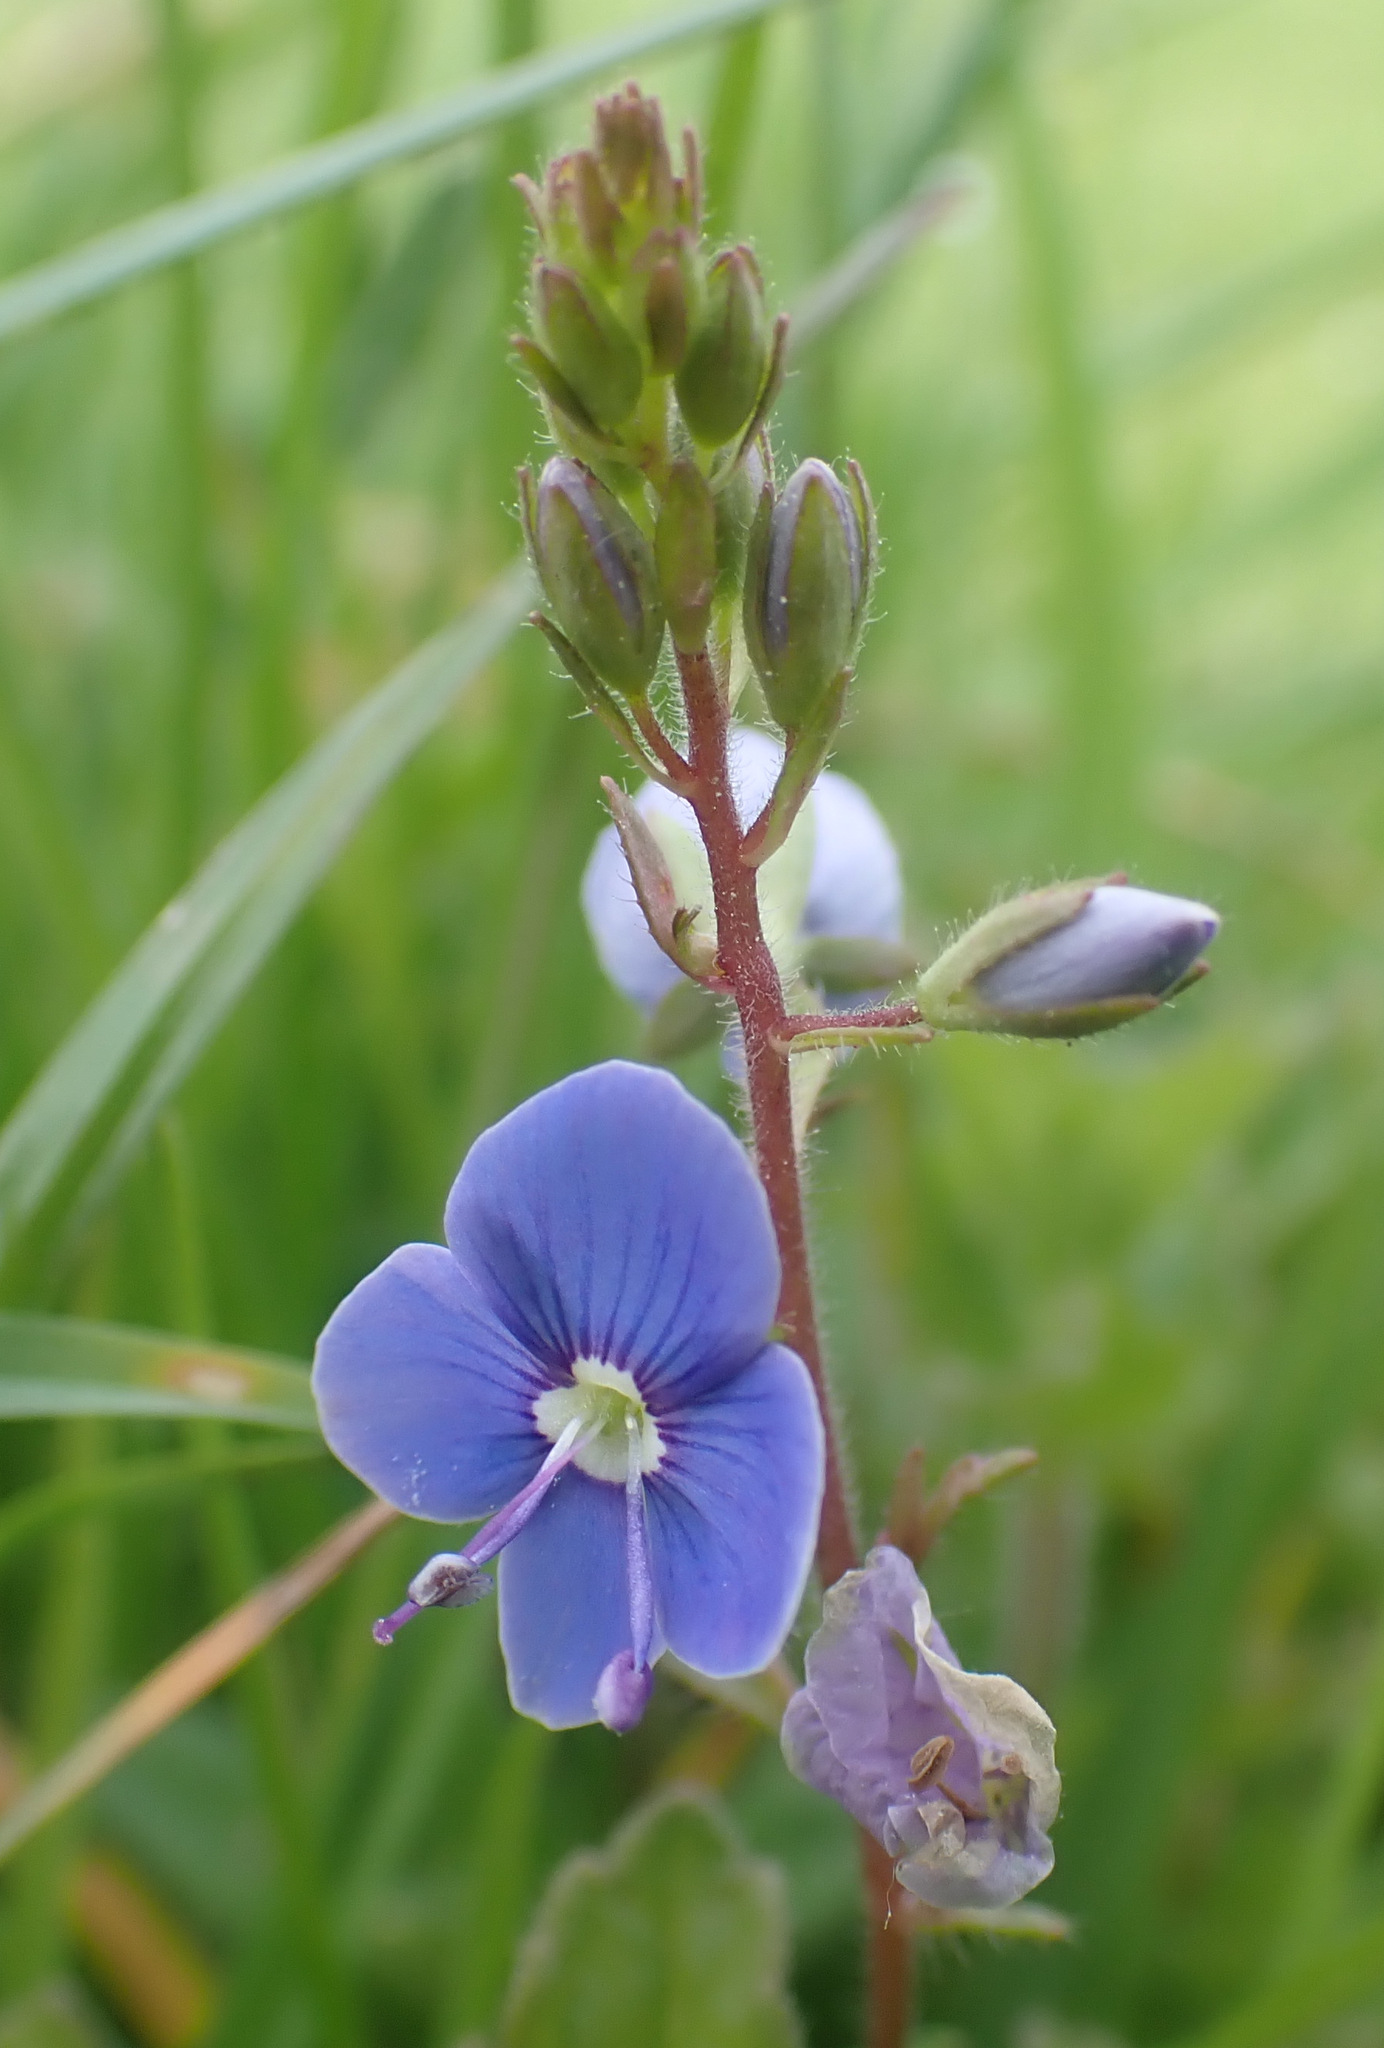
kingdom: Plantae
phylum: Tracheophyta
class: Magnoliopsida
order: Lamiales
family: Plantaginaceae
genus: Veronica
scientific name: Veronica chamaedrys
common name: Germander speedwell
